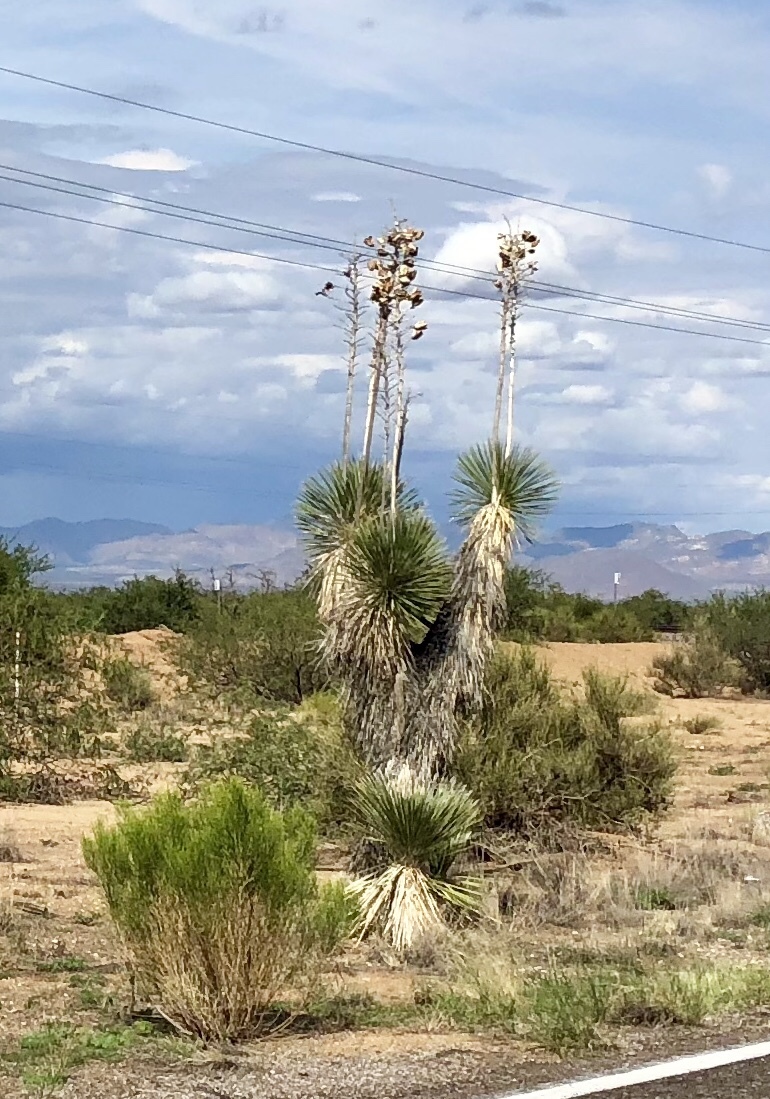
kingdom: Plantae
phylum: Tracheophyta
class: Liliopsida
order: Asparagales
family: Asparagaceae
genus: Yucca
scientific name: Yucca elata
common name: Palmella
